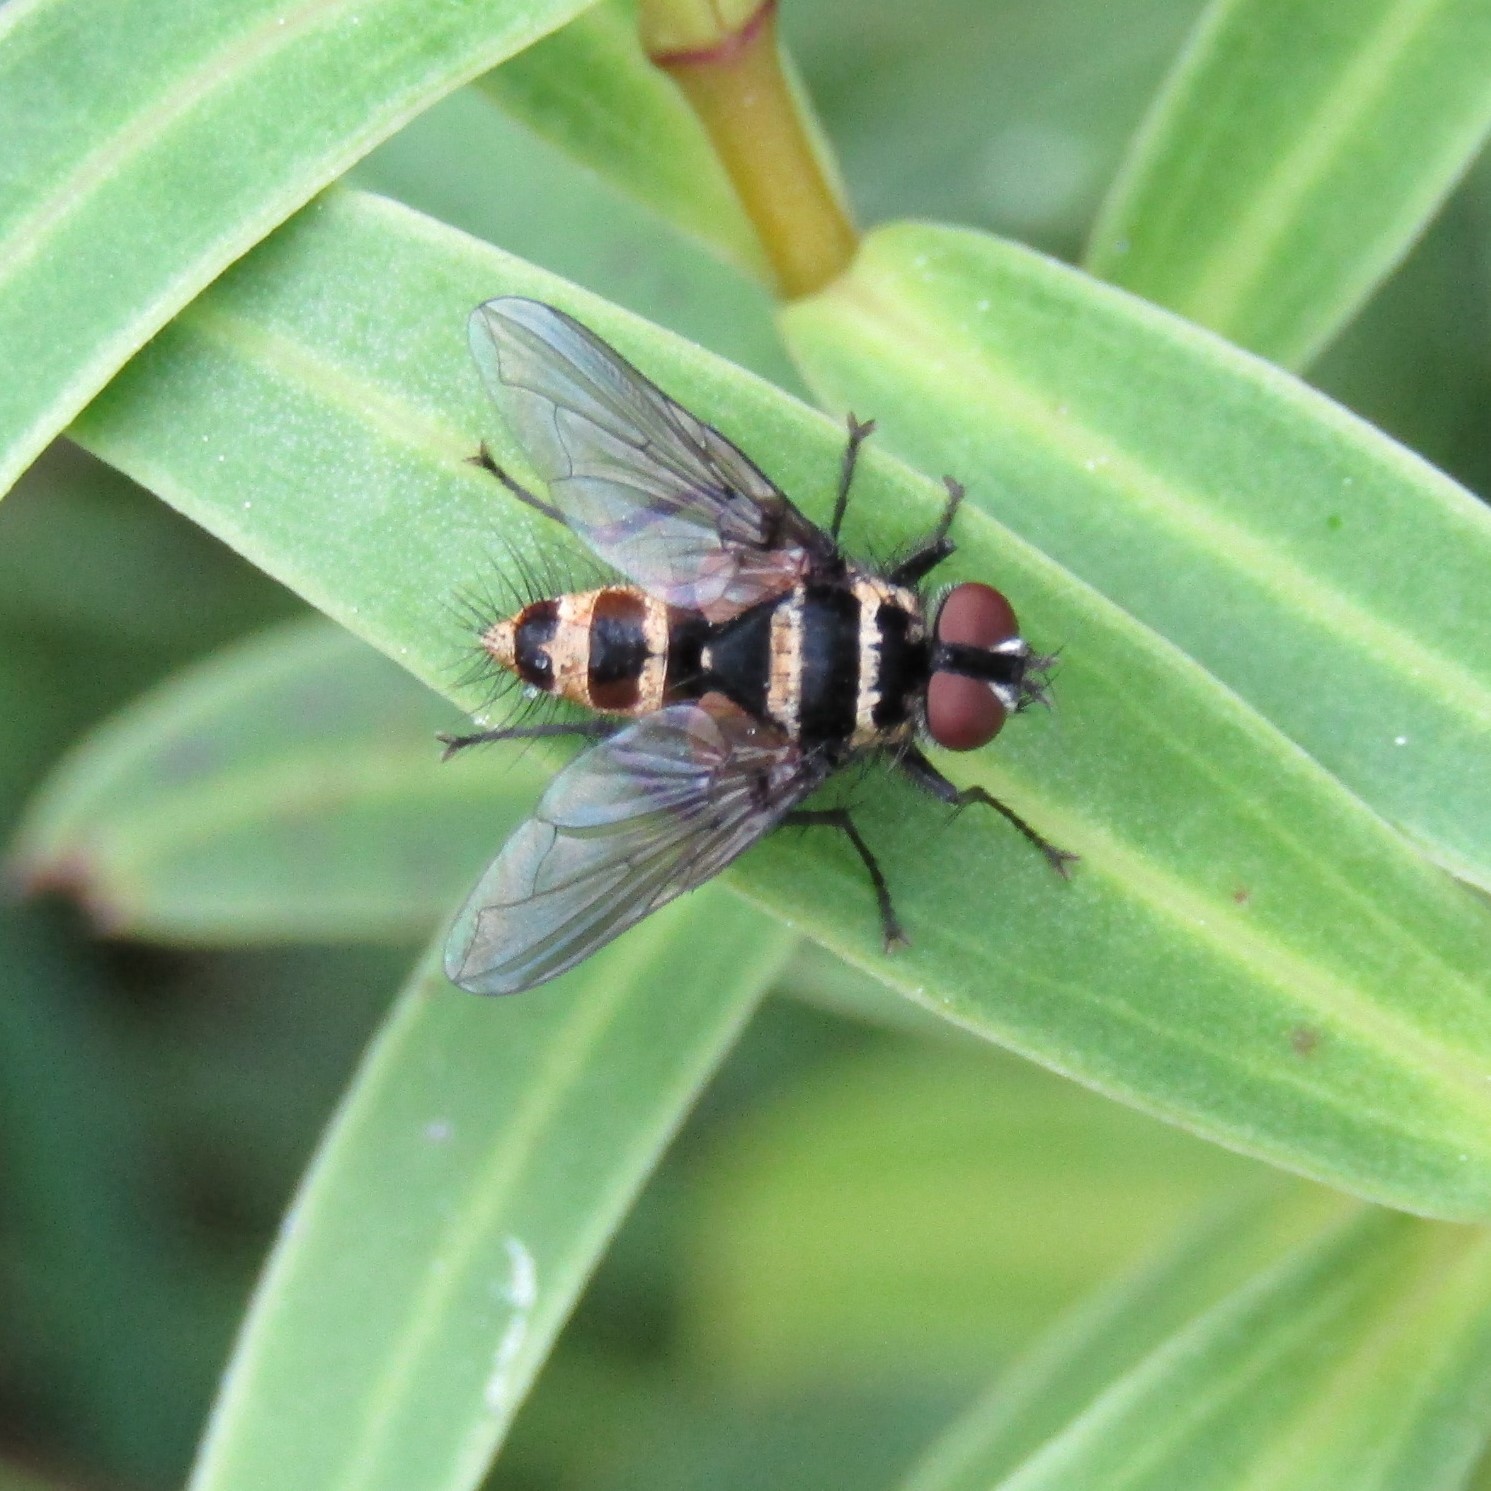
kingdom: Animalia
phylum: Arthropoda
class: Insecta
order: Diptera
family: Tachinidae
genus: Trigonospila
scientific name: Trigonospila brevifacies
